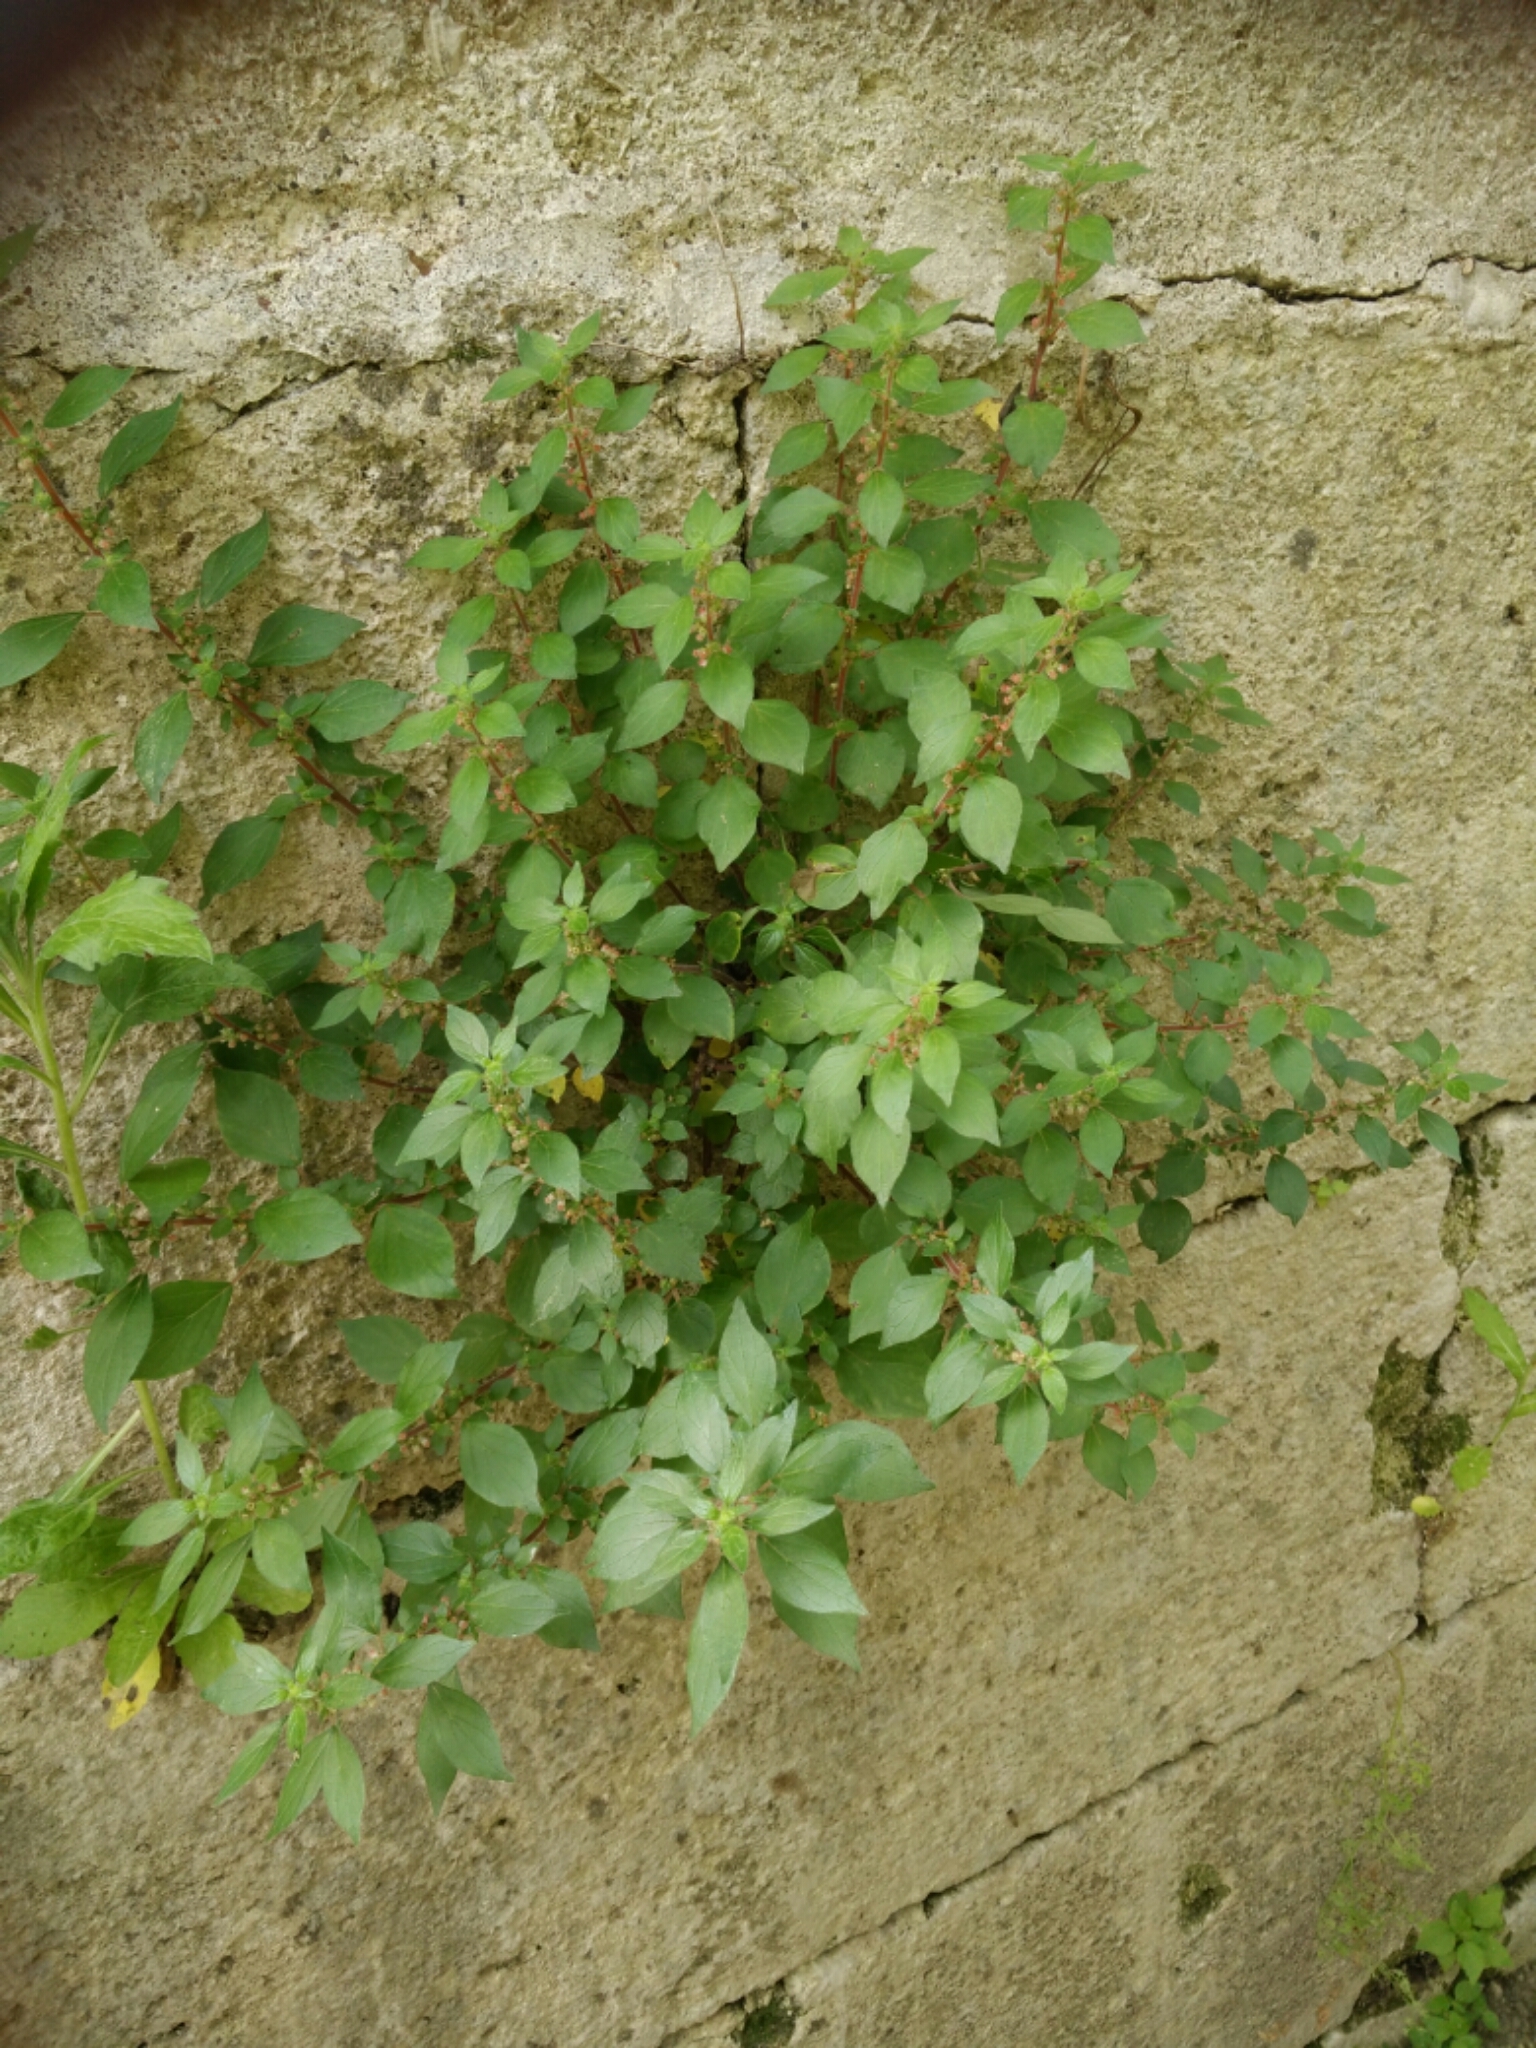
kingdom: Plantae
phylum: Tracheophyta
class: Magnoliopsida
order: Rosales
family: Urticaceae
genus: Parietaria
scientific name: Parietaria judaica
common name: Pellitory-of-the-wall
